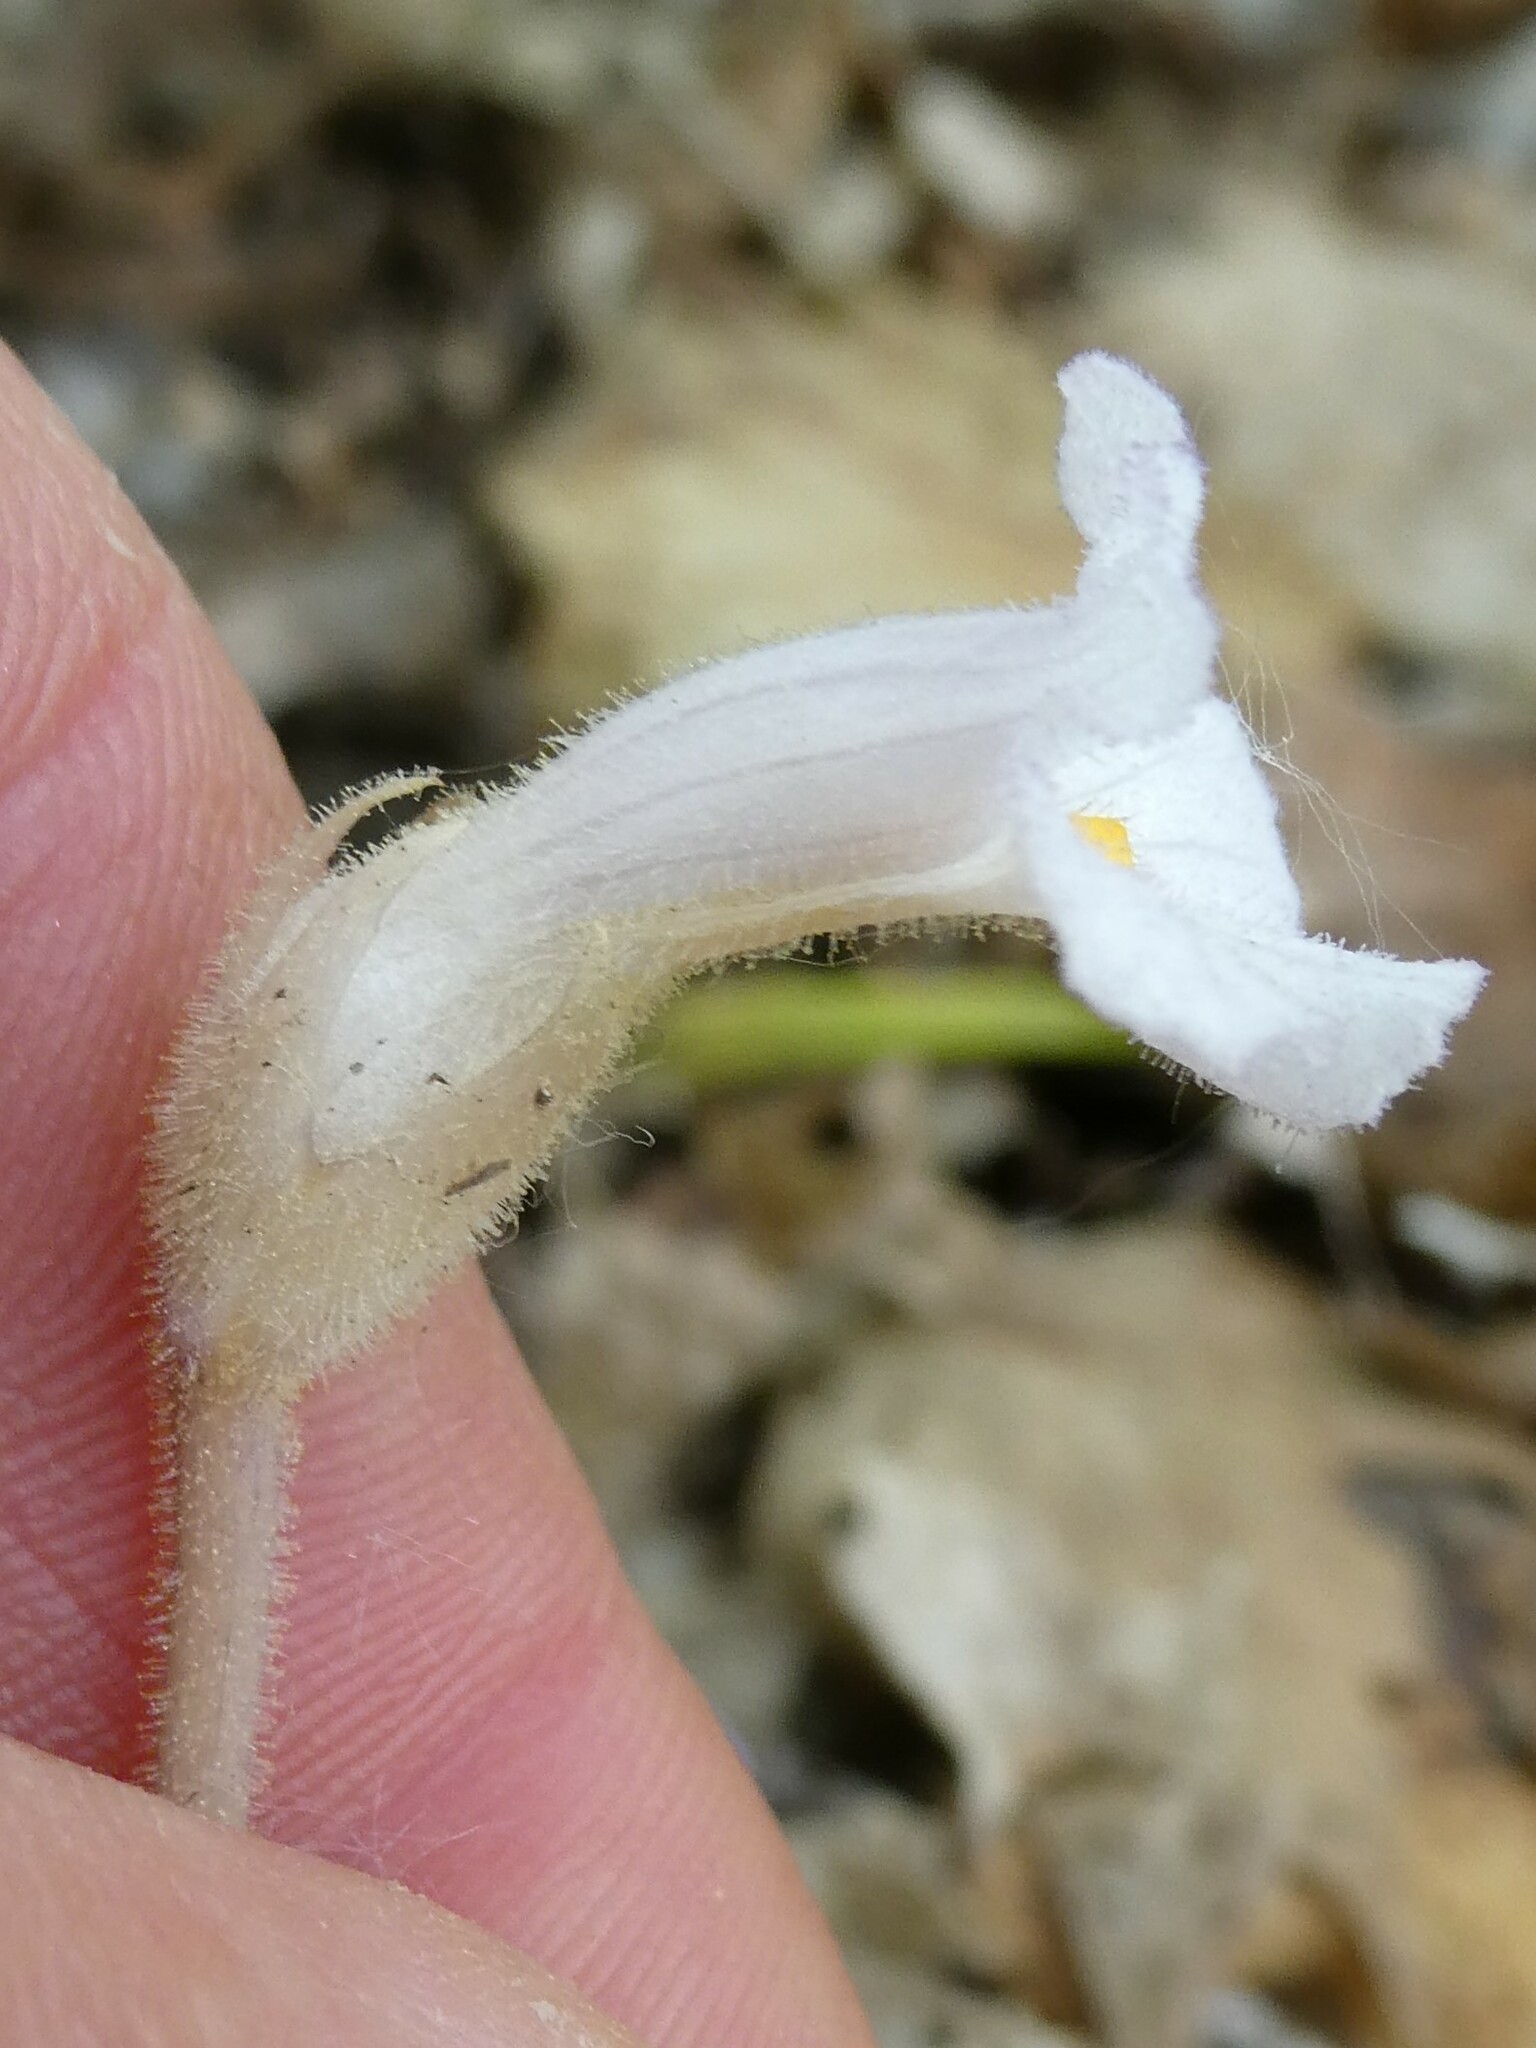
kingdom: Plantae
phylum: Tracheophyta
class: Magnoliopsida
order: Lamiales
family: Orobanchaceae
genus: Aphyllon
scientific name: Aphyllon uniflorum
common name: One-flowered broomrape
